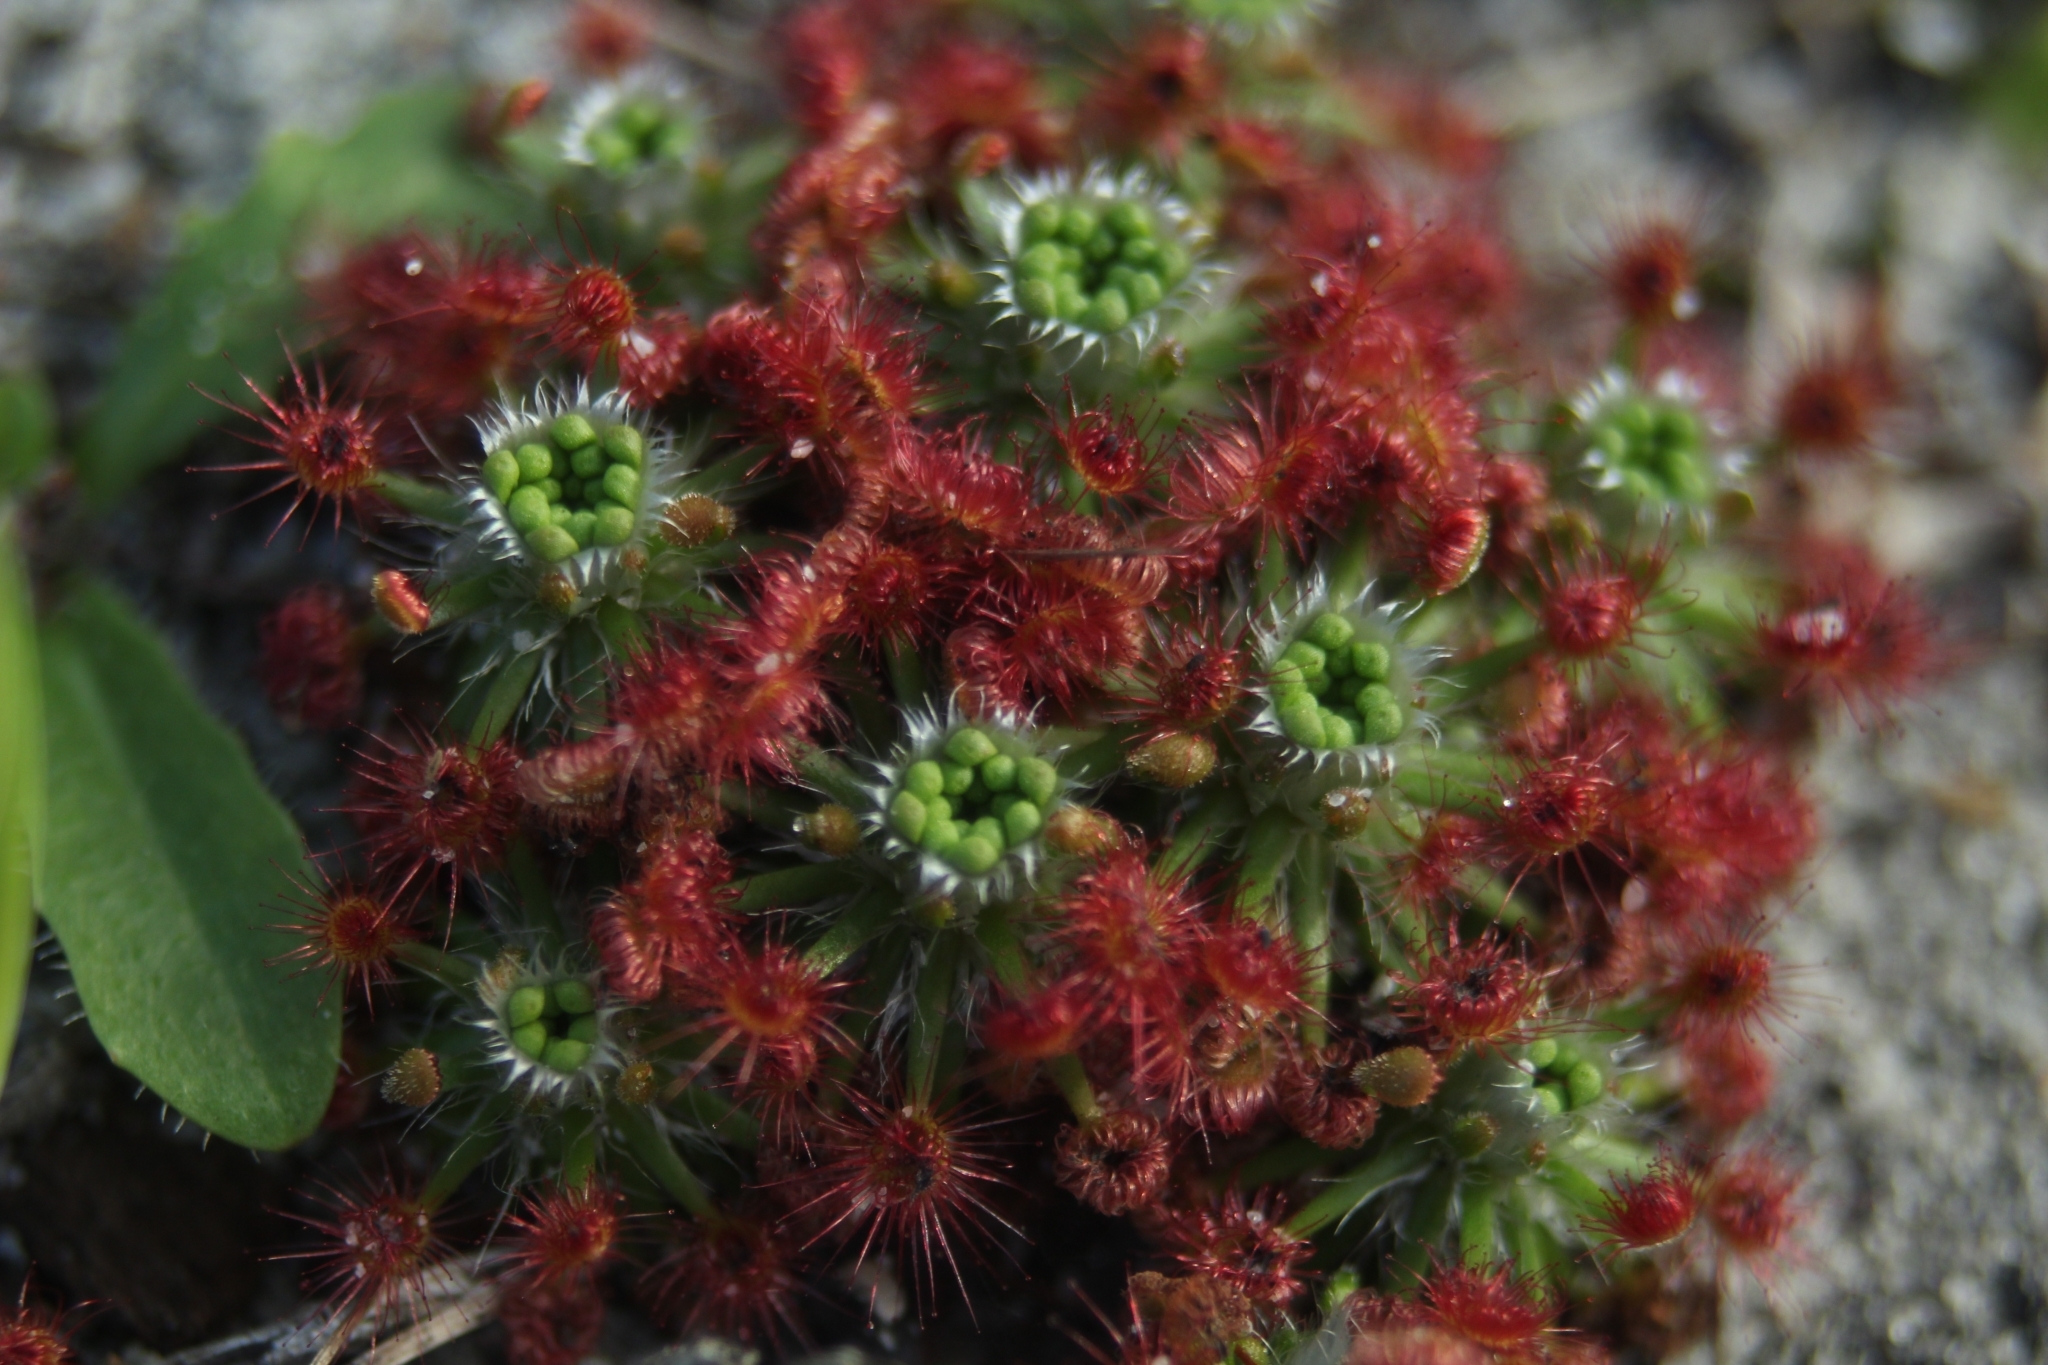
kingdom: Plantae
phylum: Tracheophyta
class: Magnoliopsida
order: Caryophyllales
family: Droseraceae
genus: Drosera
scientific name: Drosera paleacea
